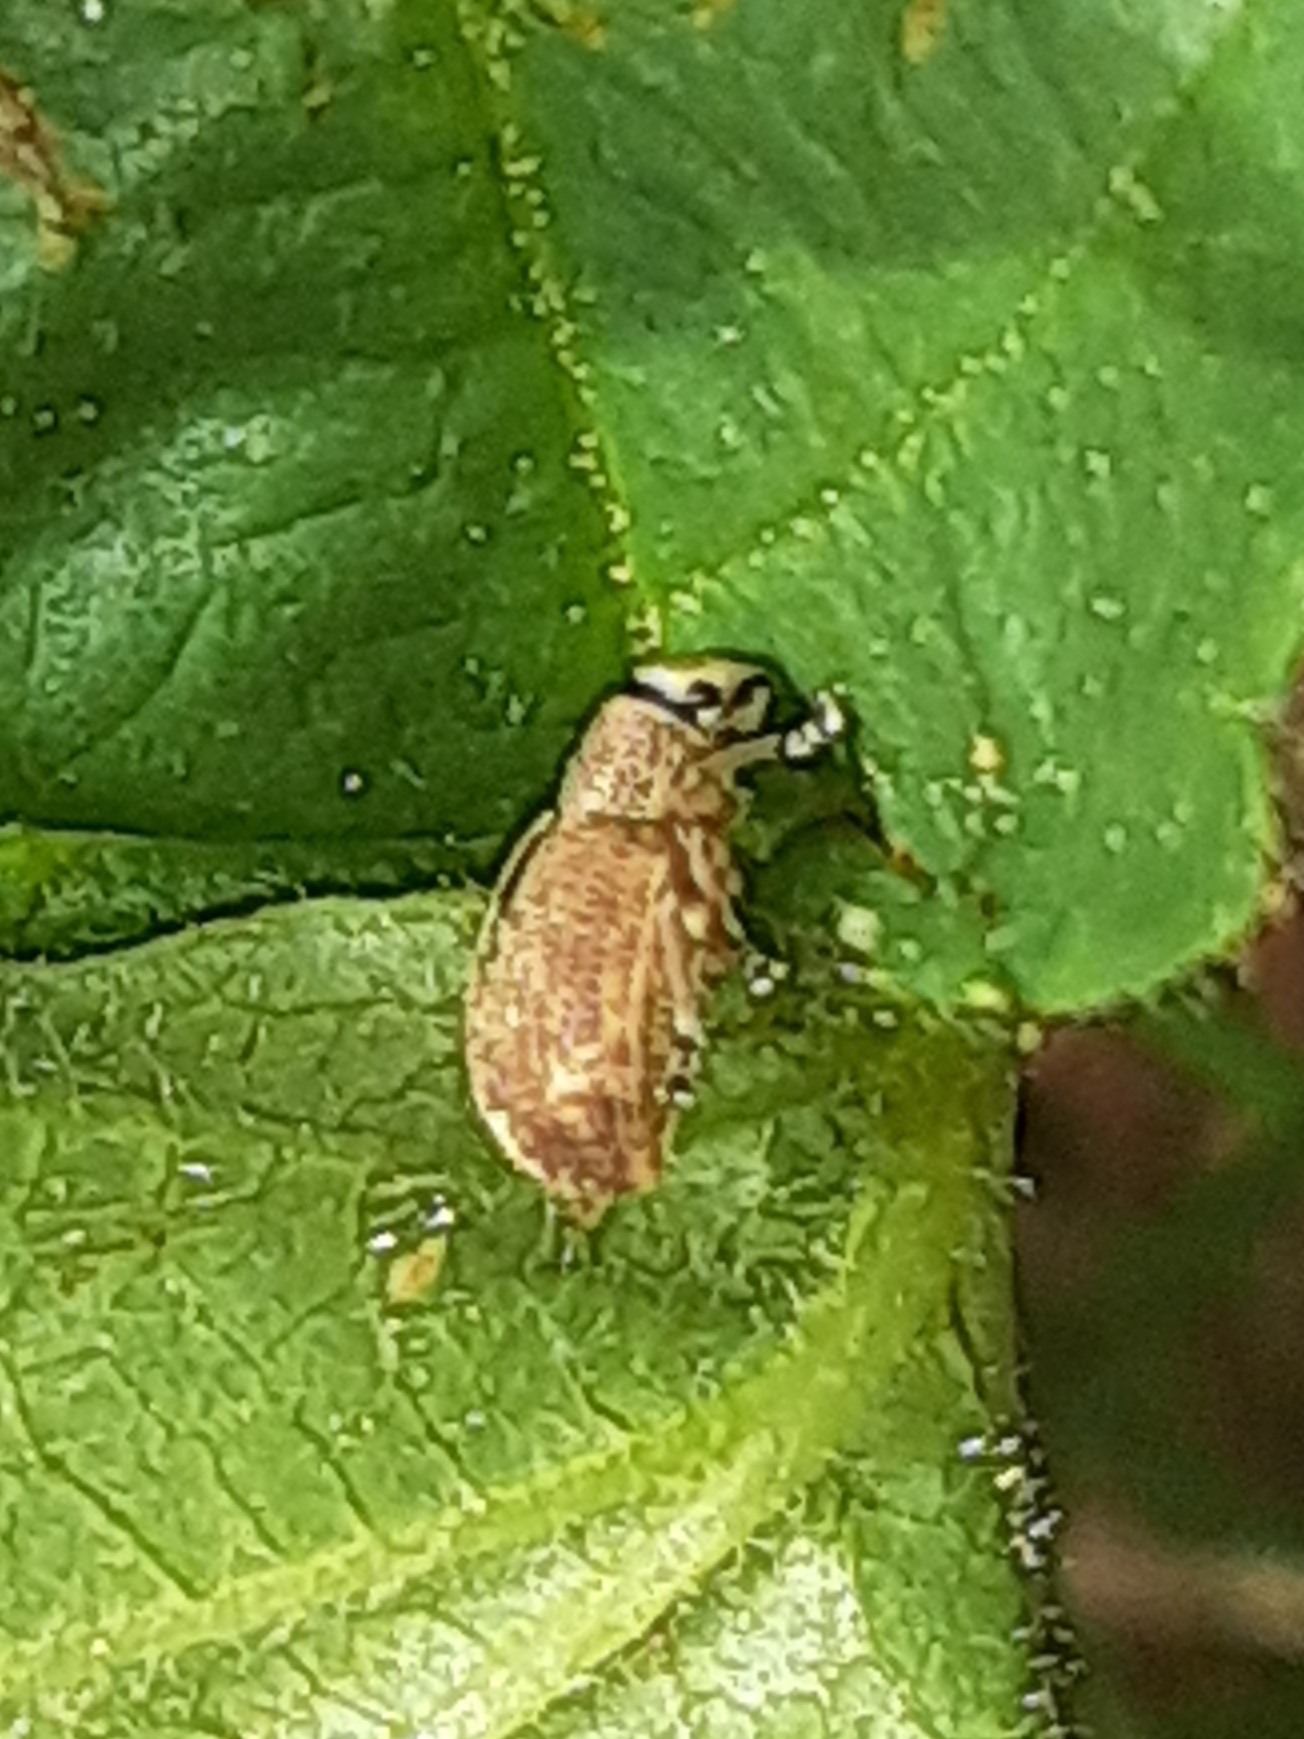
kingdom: Animalia
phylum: Arthropoda
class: Insecta
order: Coleoptera
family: Curculionidae
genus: Strophosoma
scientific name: Strophosoma melanogrammum
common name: Weevil
